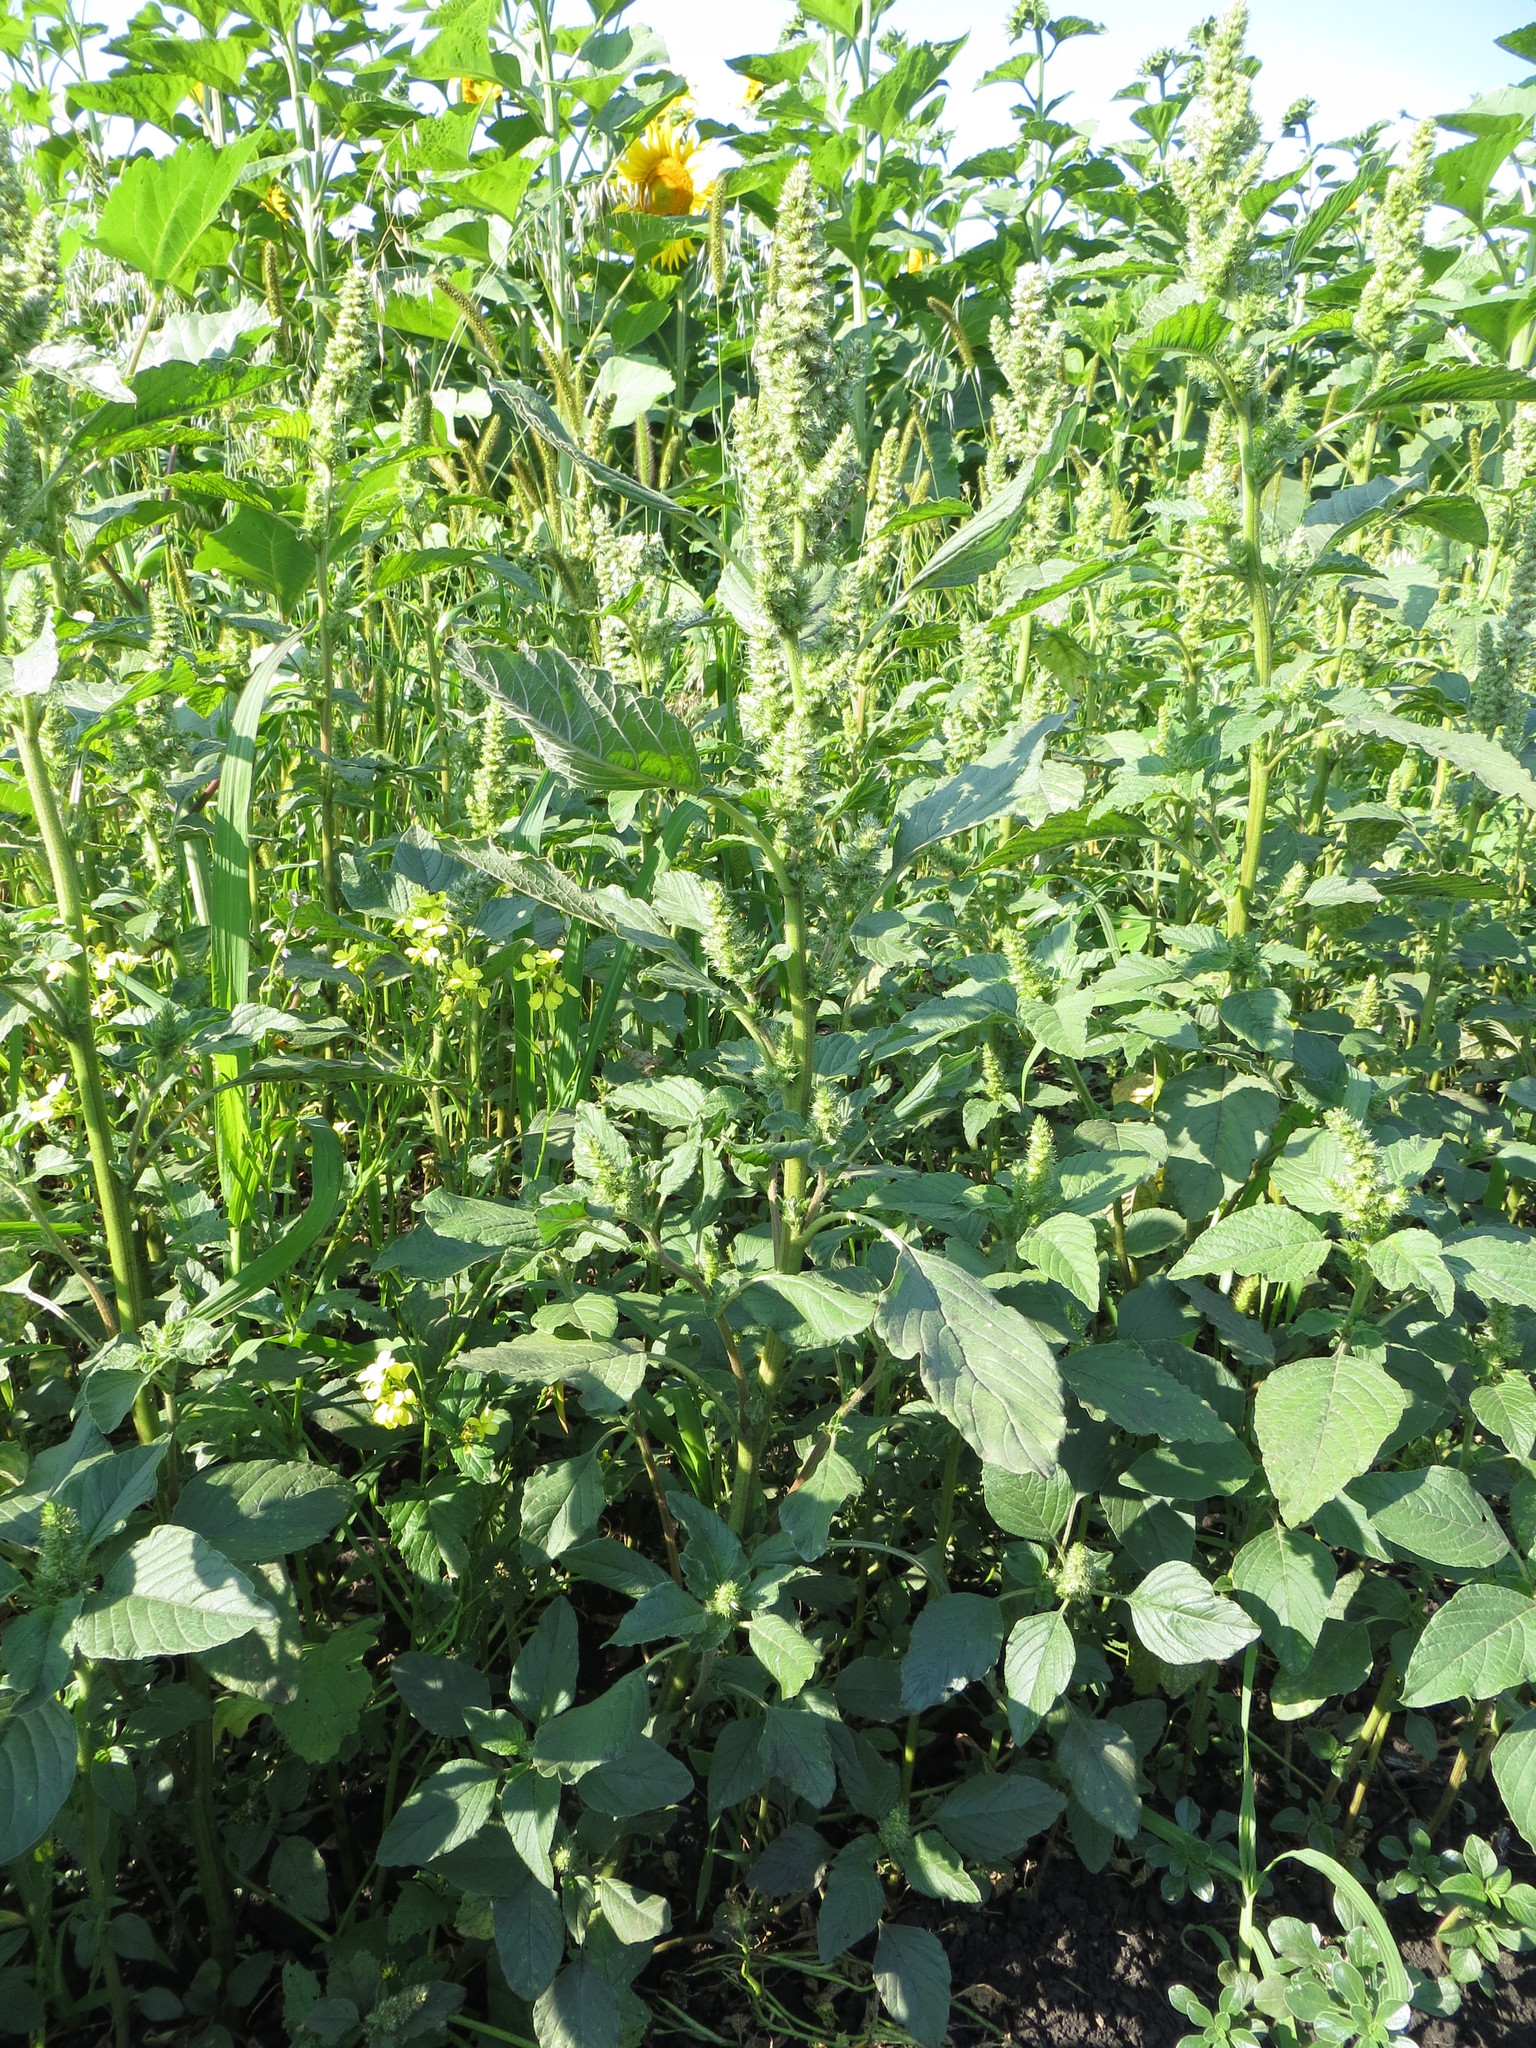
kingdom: Plantae
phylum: Tracheophyta
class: Magnoliopsida
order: Caryophyllales
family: Amaranthaceae
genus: Amaranthus
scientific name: Amaranthus retroflexus
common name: Redroot amaranth
